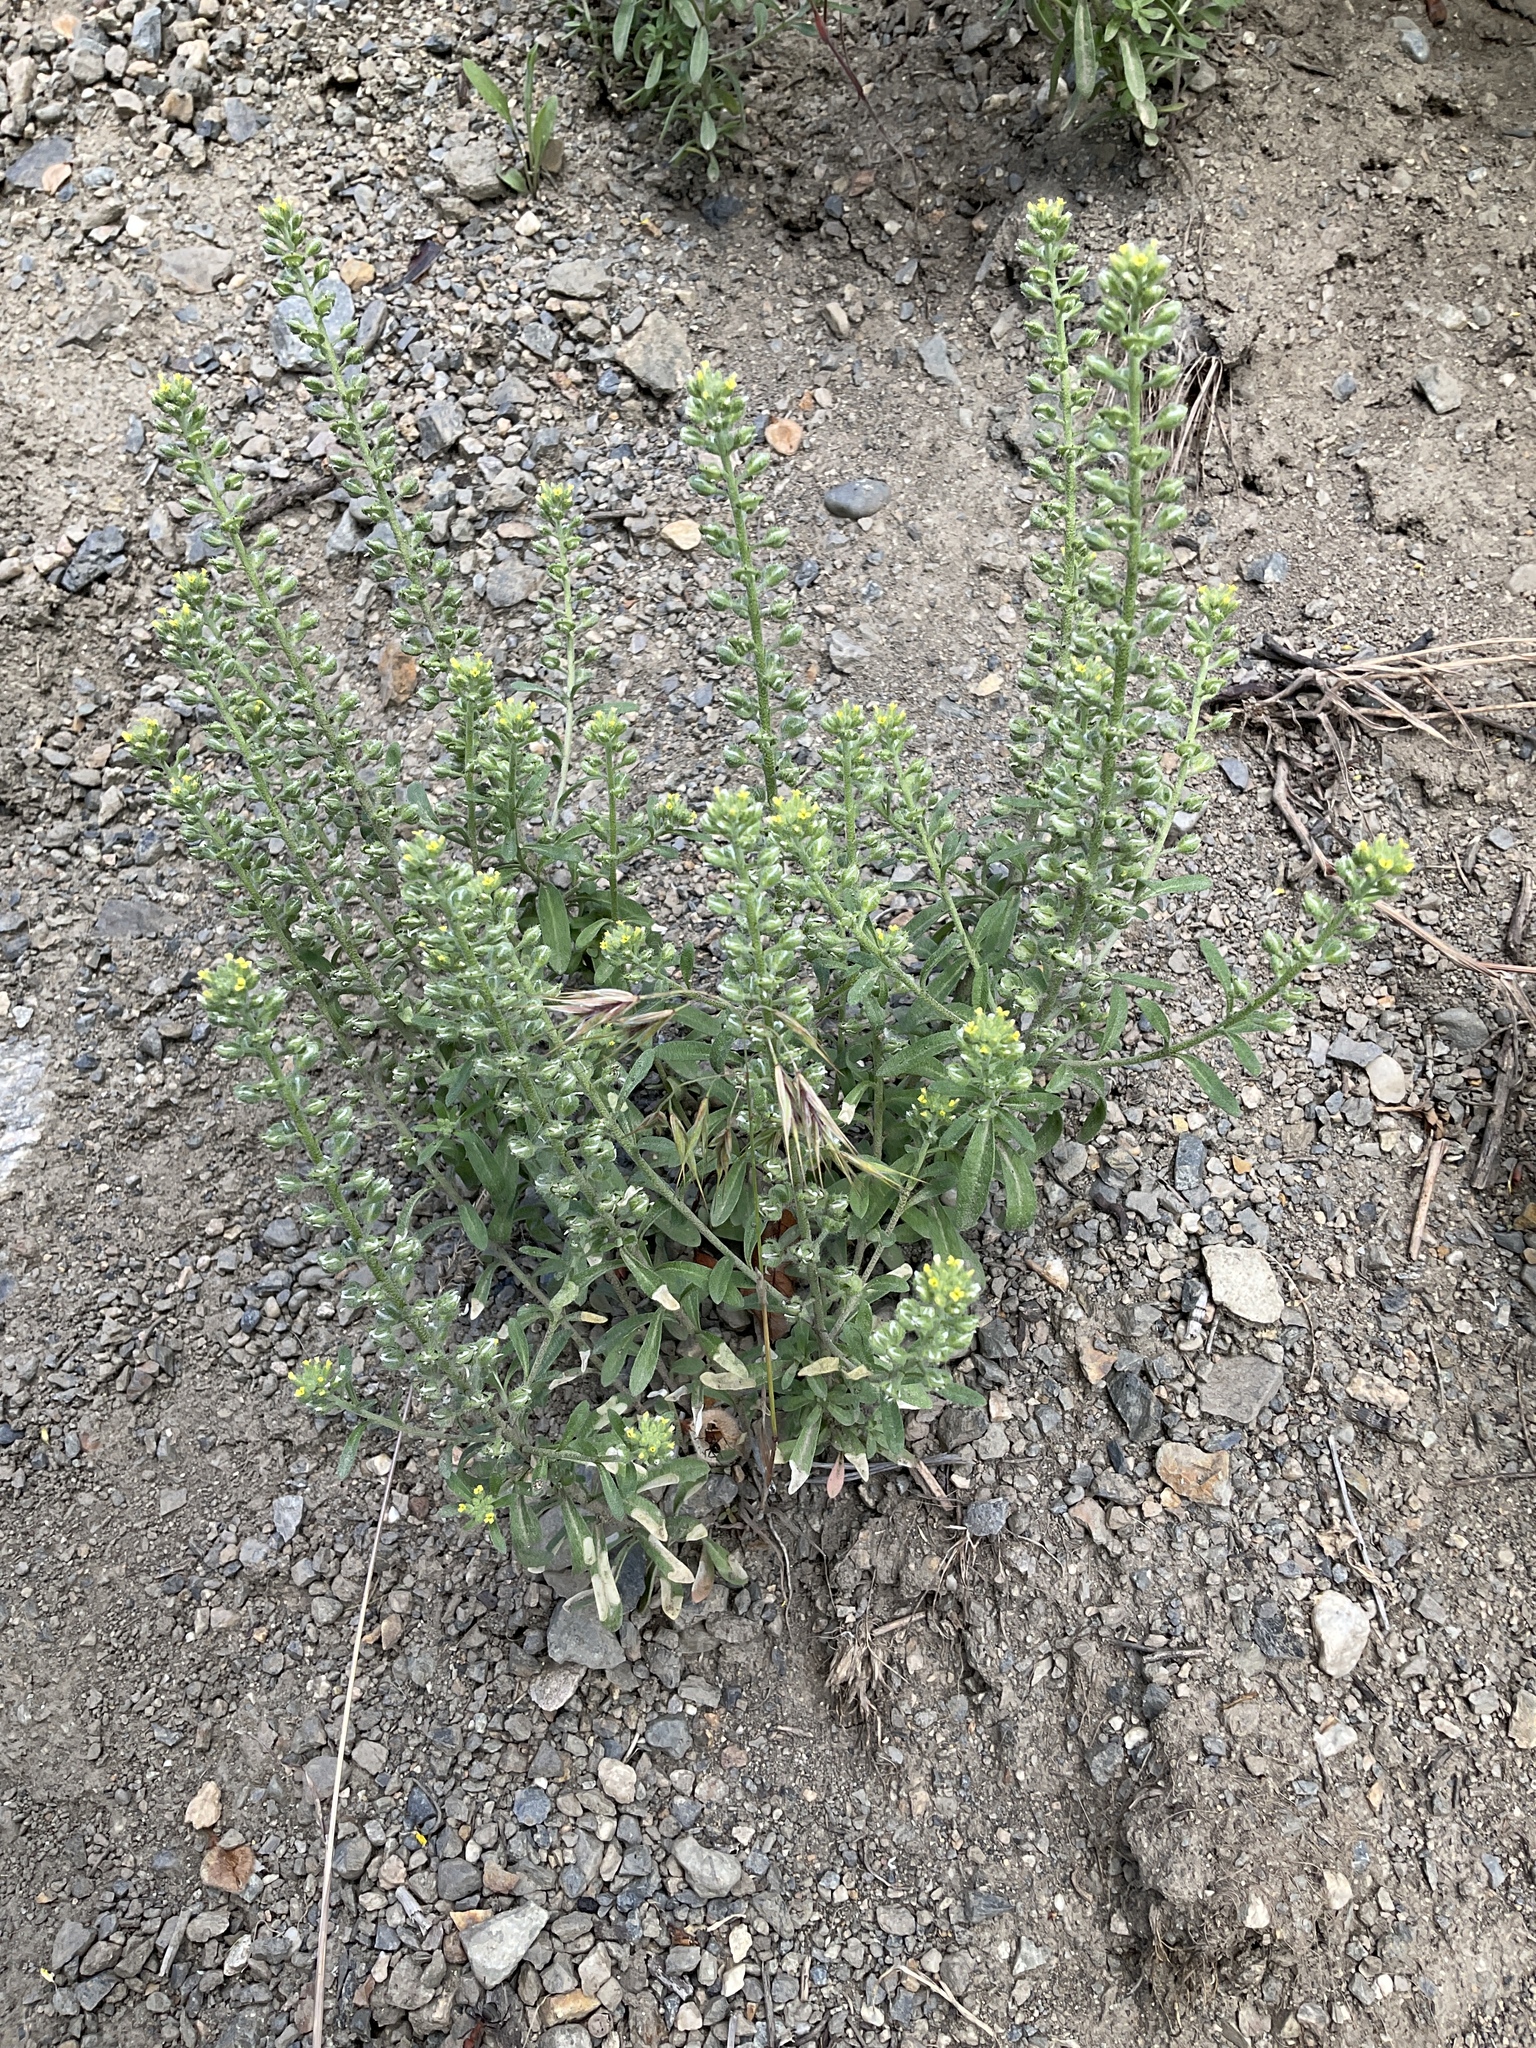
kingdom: Plantae
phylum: Tracheophyta
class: Magnoliopsida
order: Brassicales
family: Brassicaceae
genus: Alyssum
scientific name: Alyssum alyssoides
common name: Small alison
